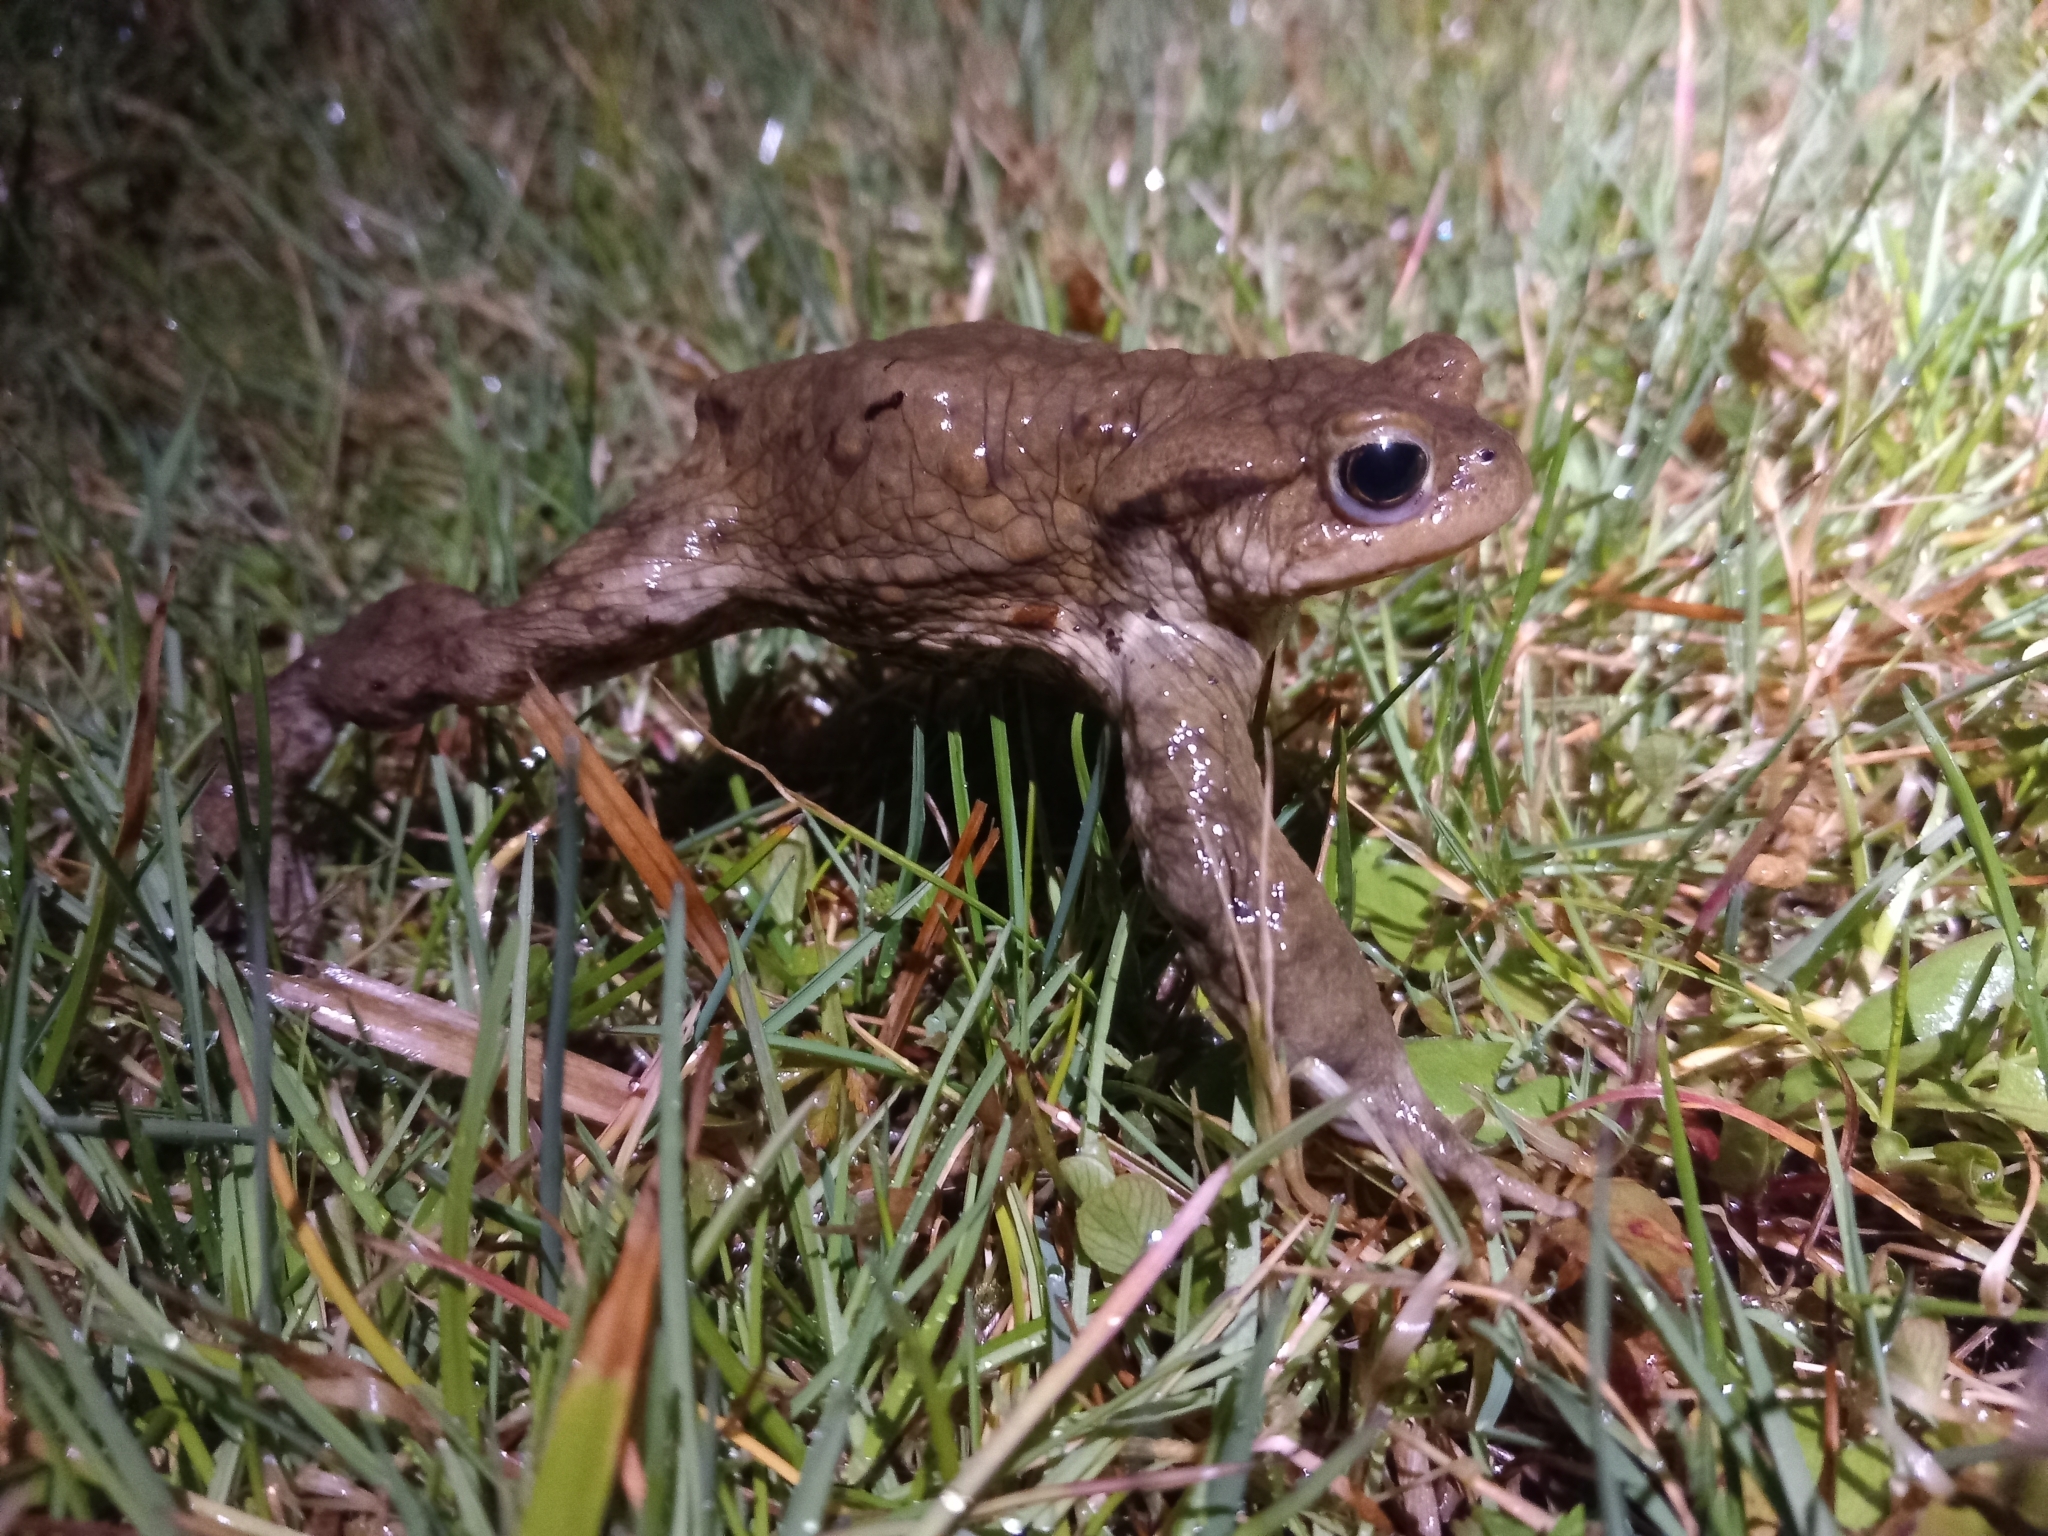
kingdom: Animalia
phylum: Chordata
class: Amphibia
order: Anura
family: Bufonidae
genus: Bufo
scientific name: Bufo bufo
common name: Common toad
